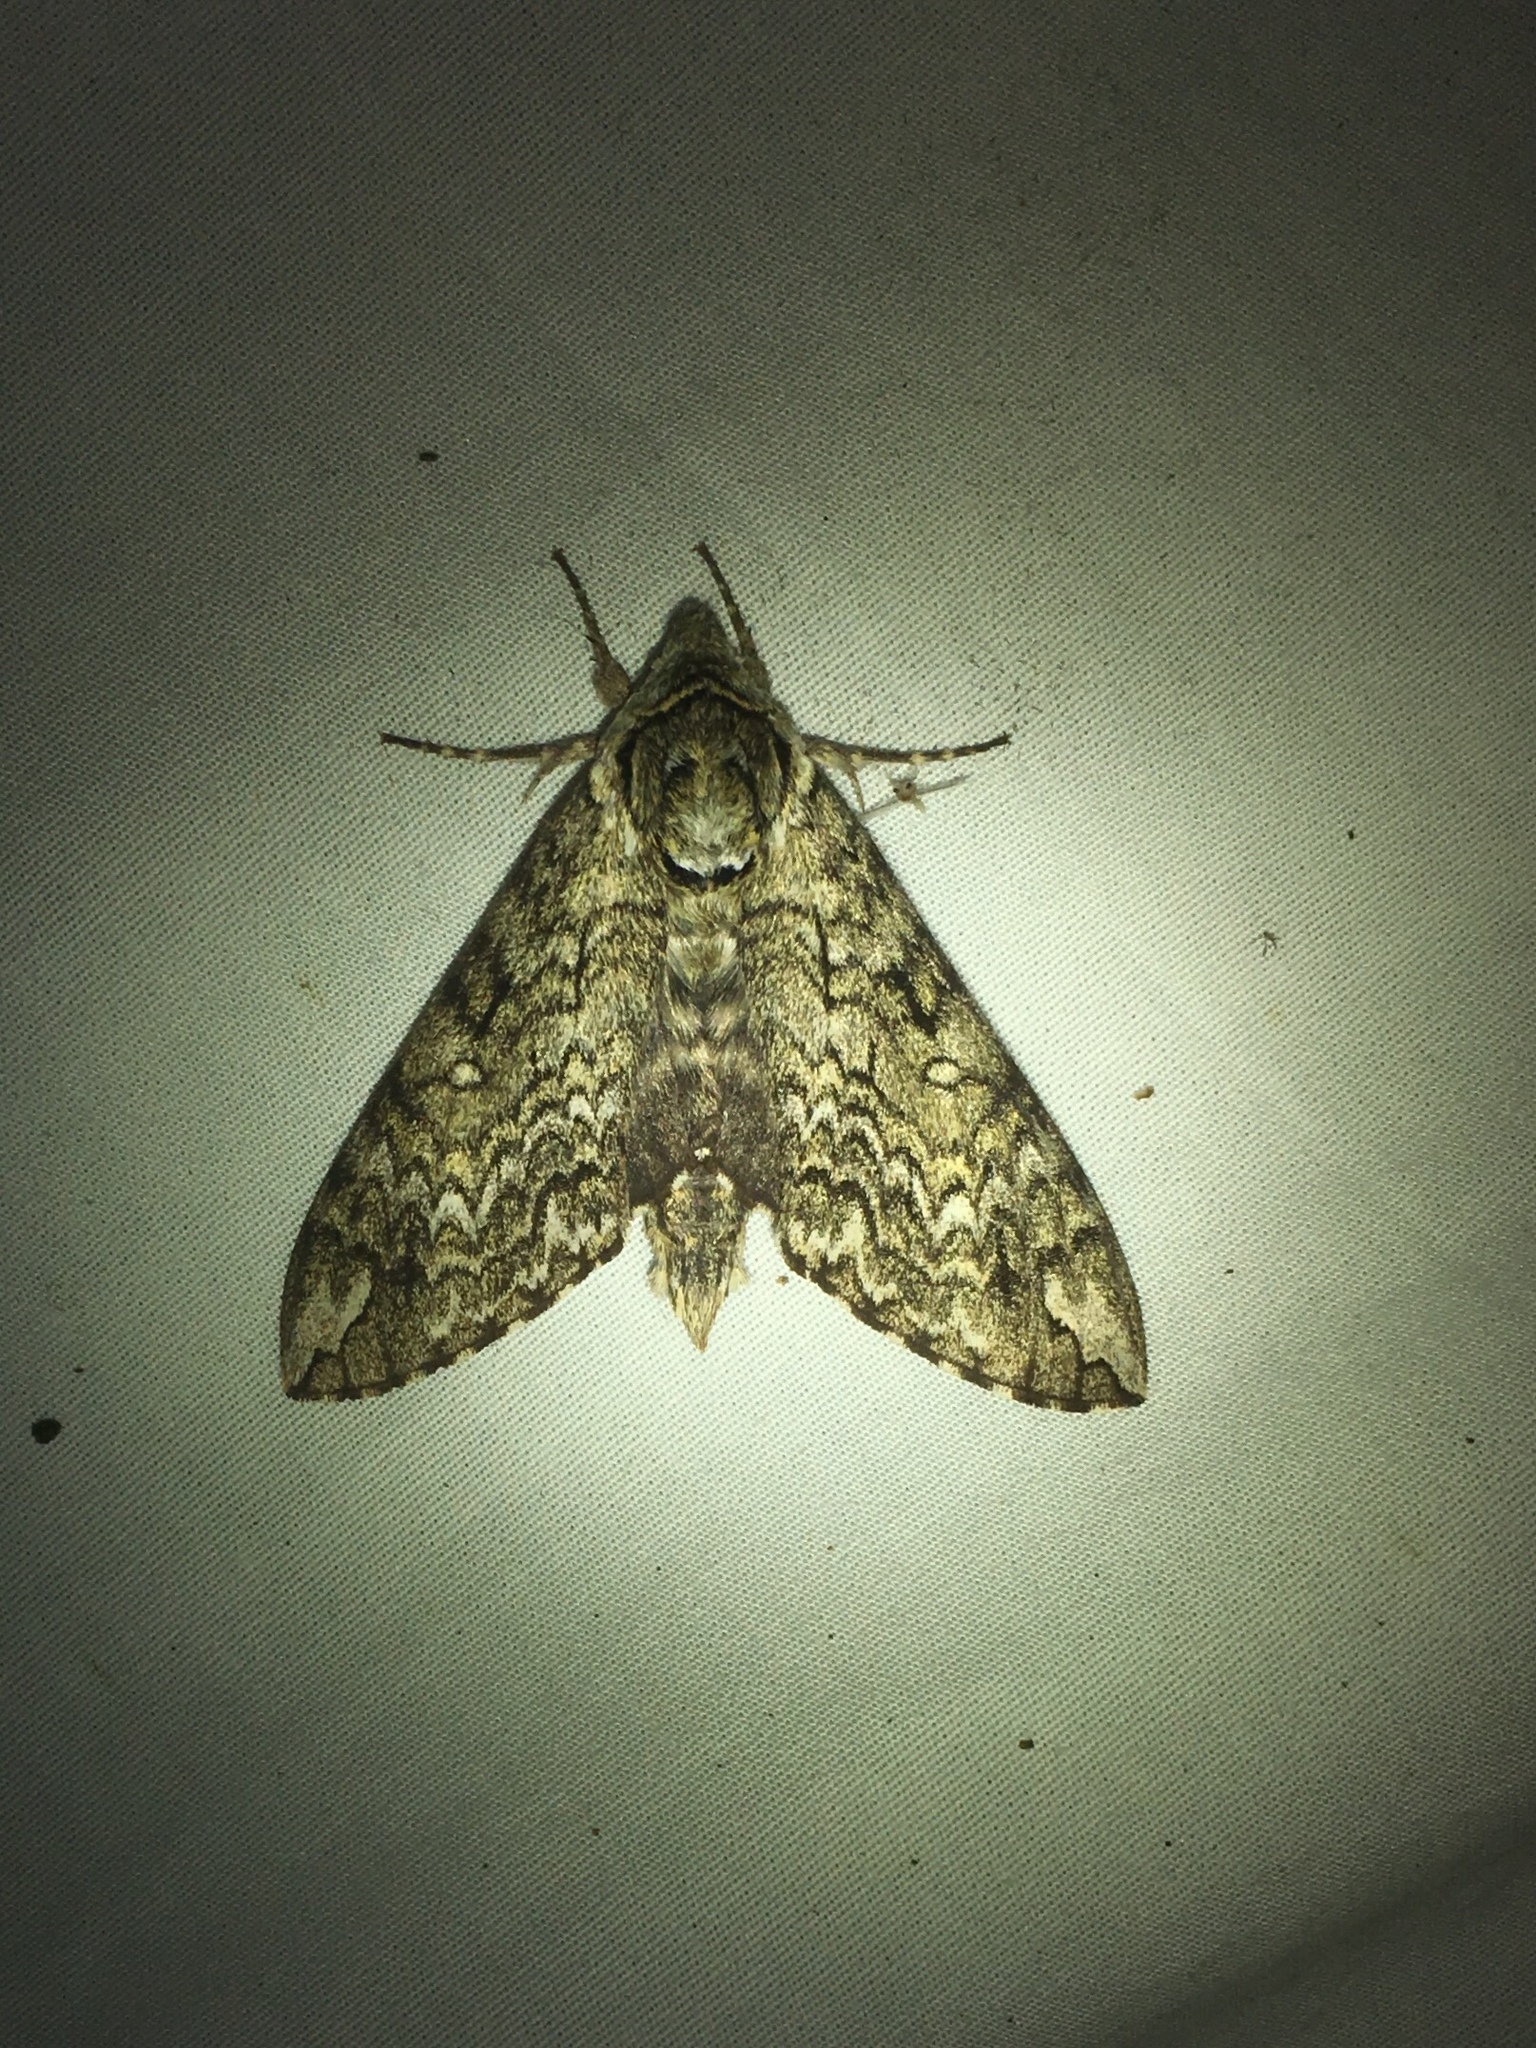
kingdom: Animalia
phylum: Arthropoda
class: Insecta
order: Lepidoptera
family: Sphingidae
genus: Ceratomia
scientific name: Ceratomia undulosa
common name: Waved sphinx
